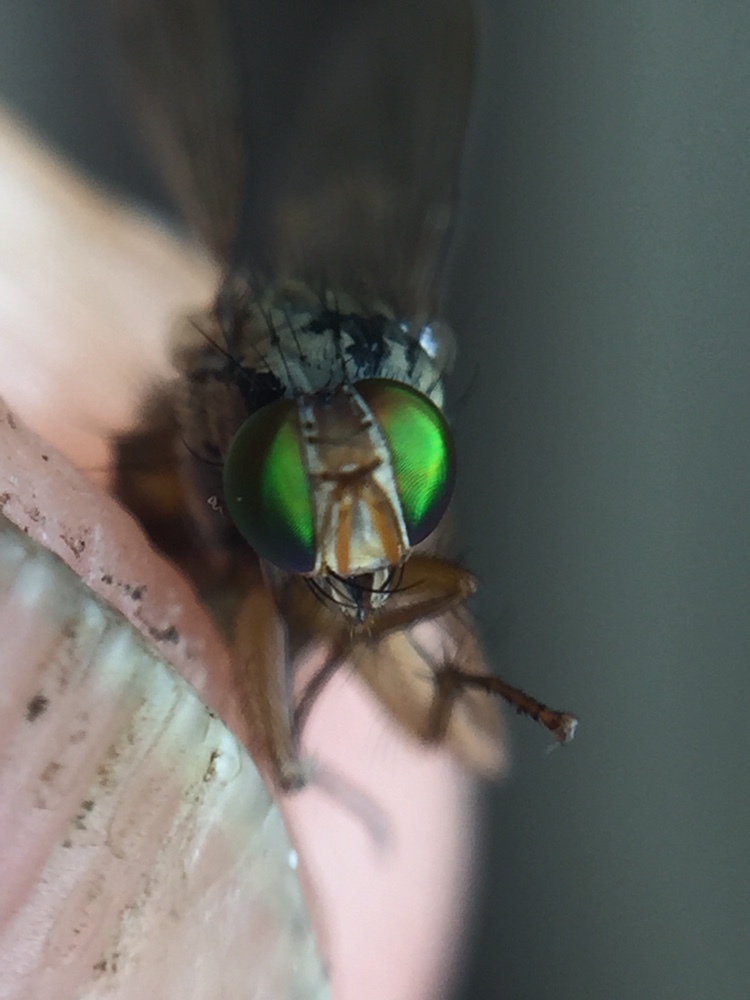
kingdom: Animalia
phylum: Arthropoda
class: Insecta
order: Diptera
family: Muscidae
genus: Pygophora
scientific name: Pygophora apicalis
